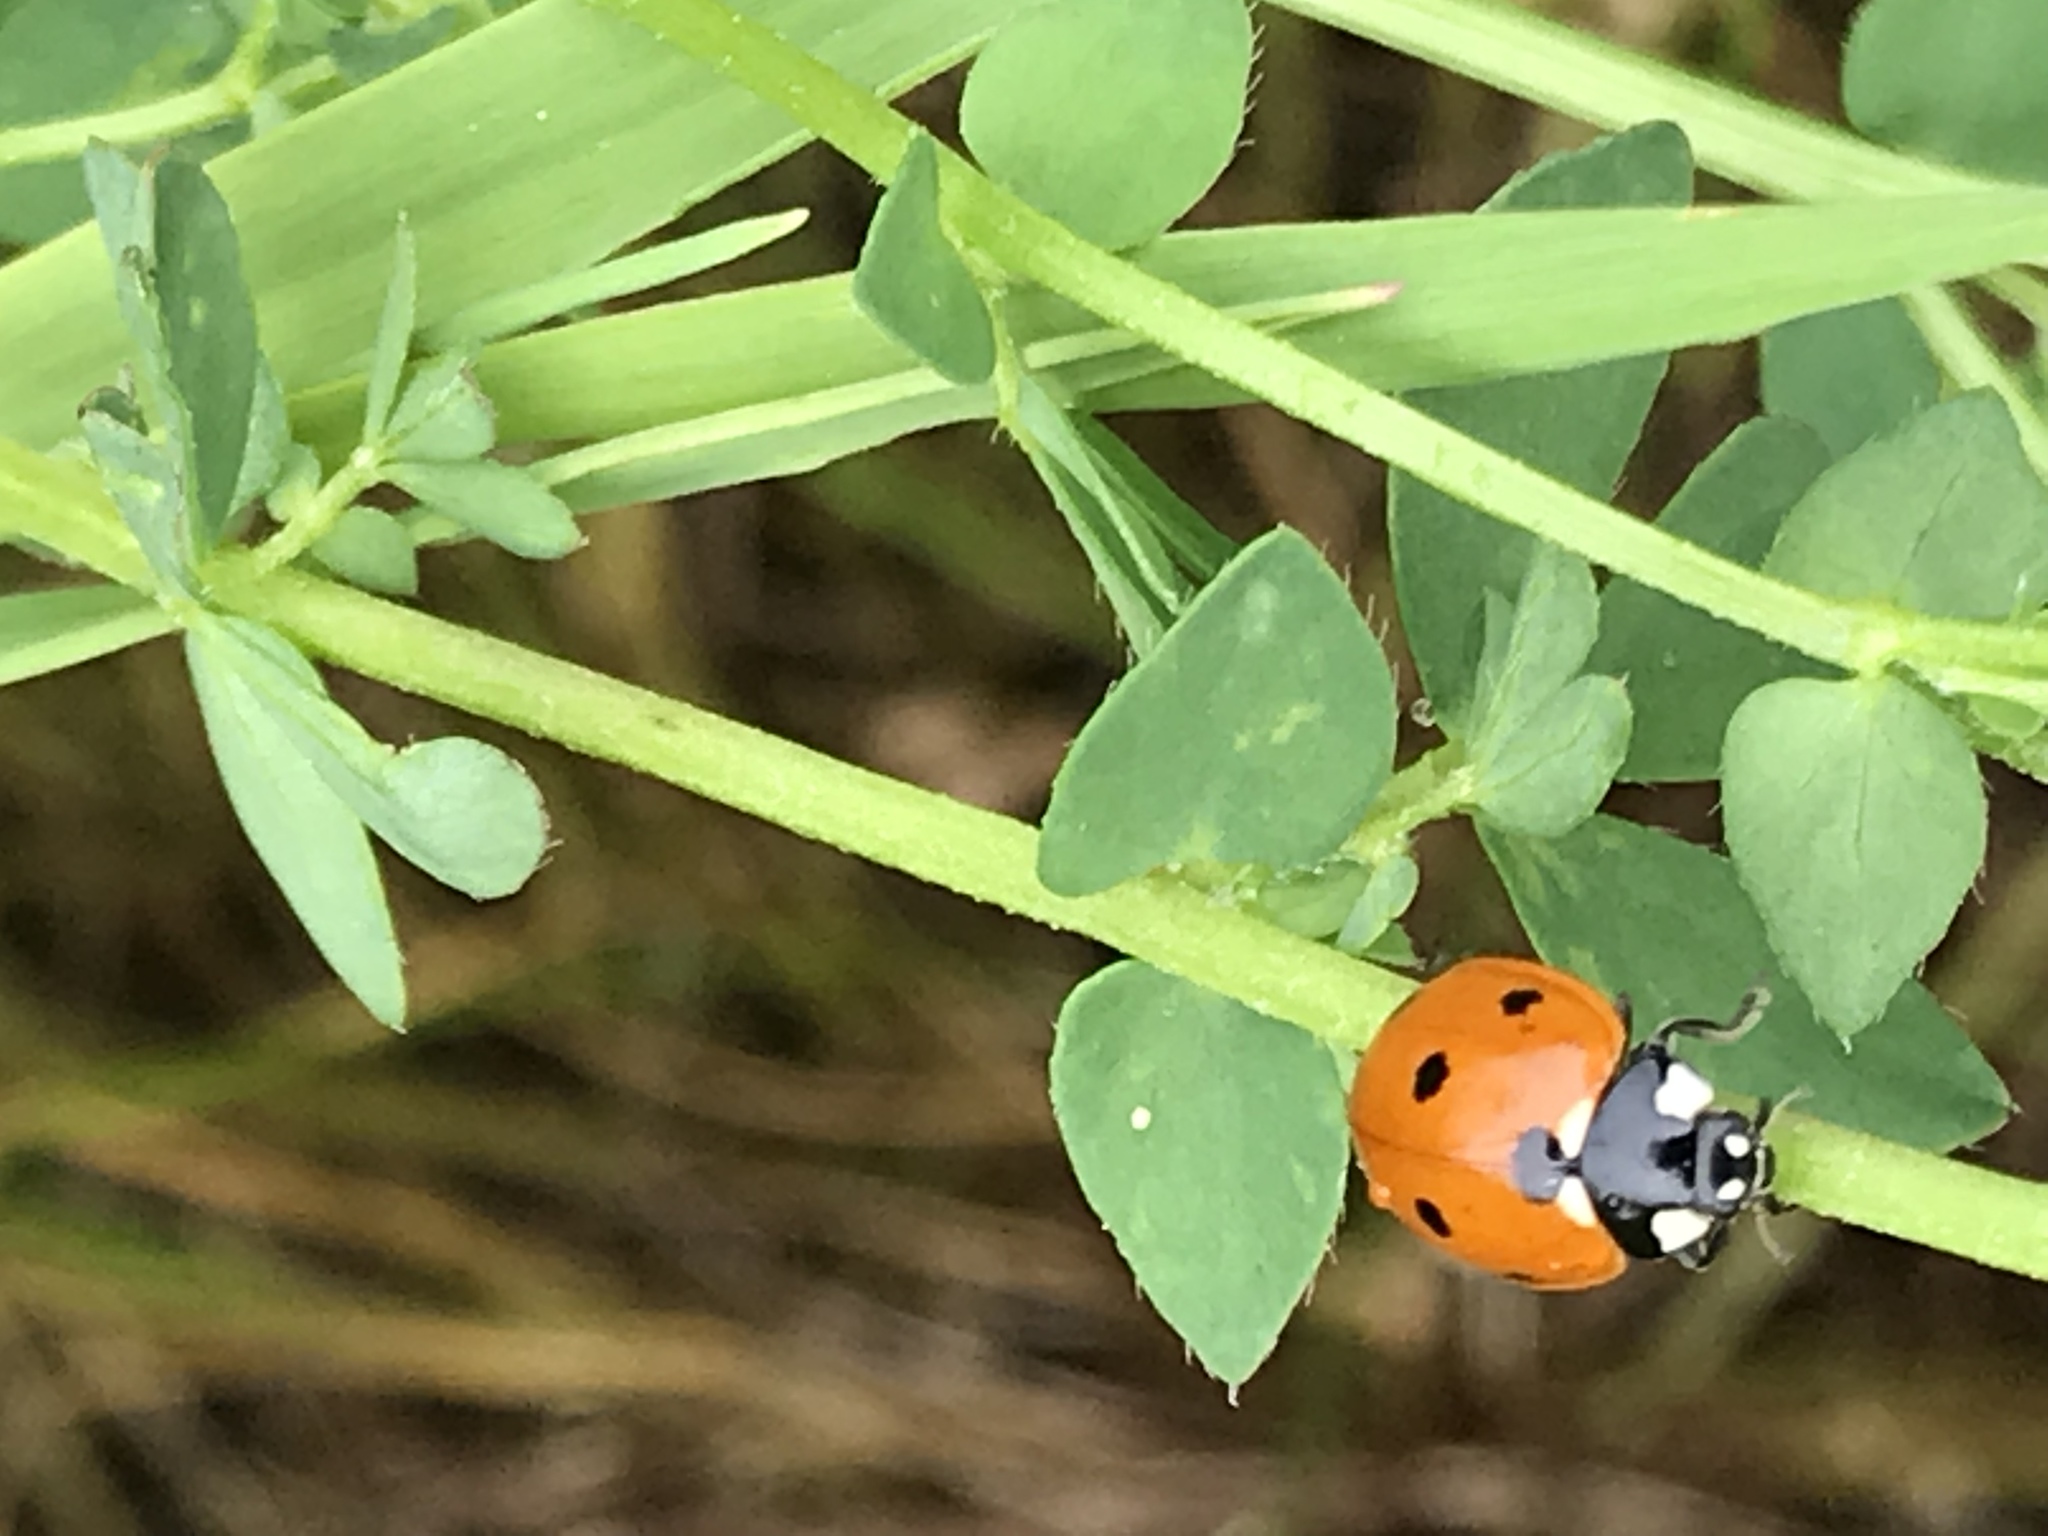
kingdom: Animalia
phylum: Arthropoda
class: Insecta
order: Coleoptera
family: Coccinellidae
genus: Coccinella
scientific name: Coccinella septempunctata
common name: Sevenspotted lady beetle
